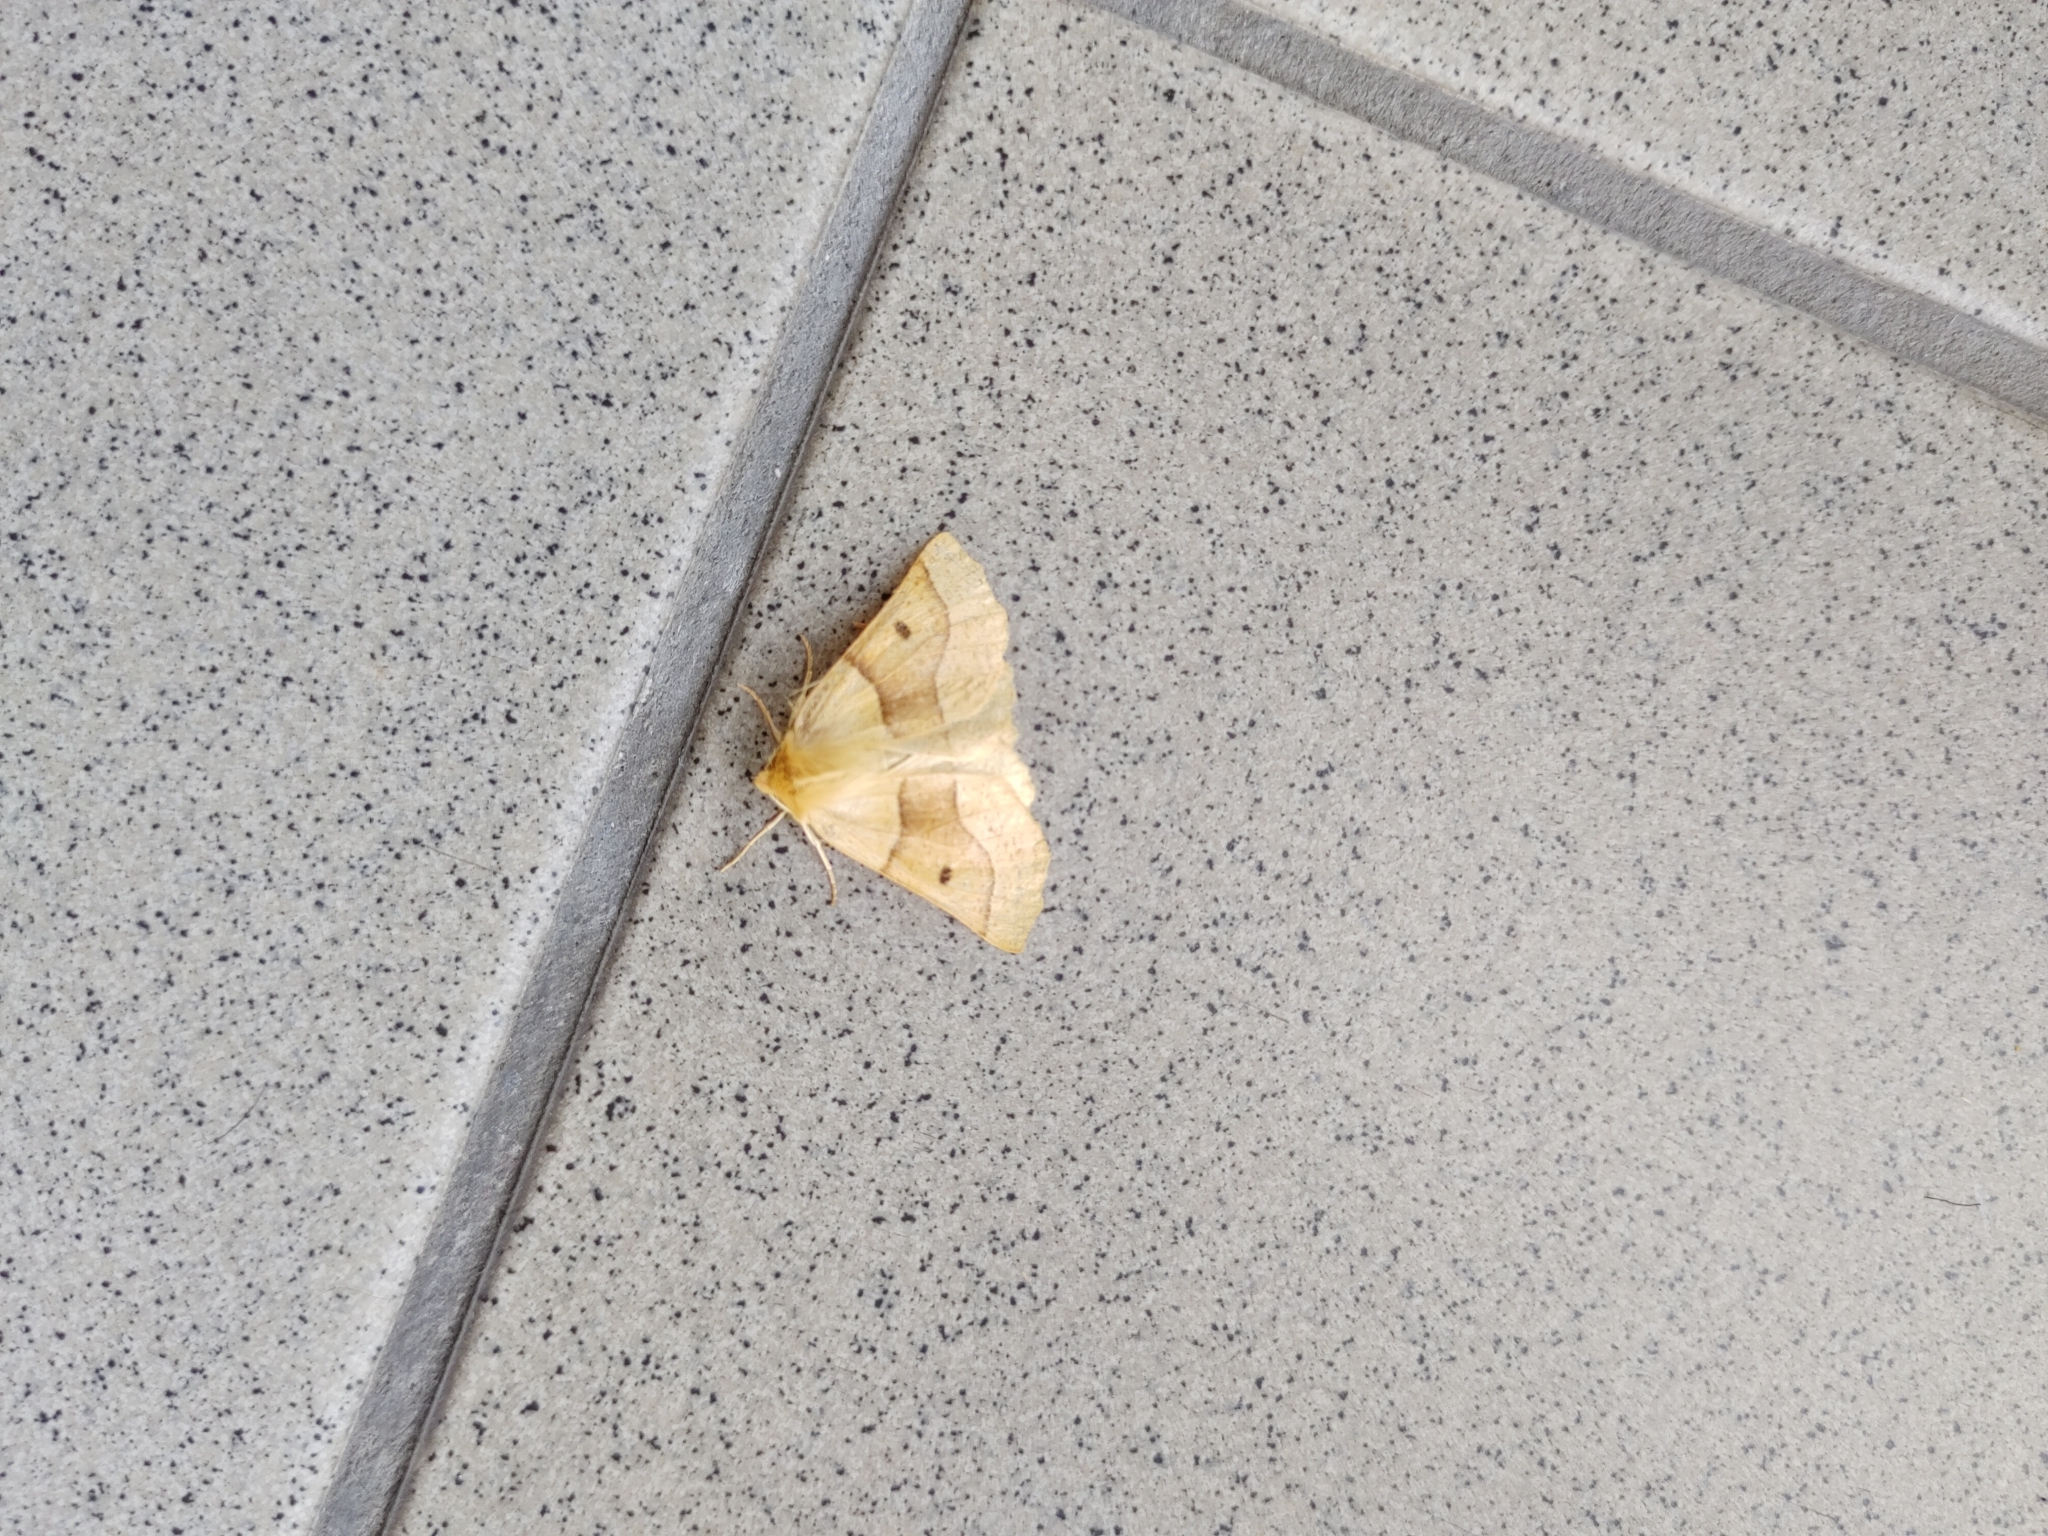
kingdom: Animalia
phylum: Arthropoda
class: Insecta
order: Lepidoptera
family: Geometridae
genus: Crocallis
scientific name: Crocallis elinguaria
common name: Scalloped oak
